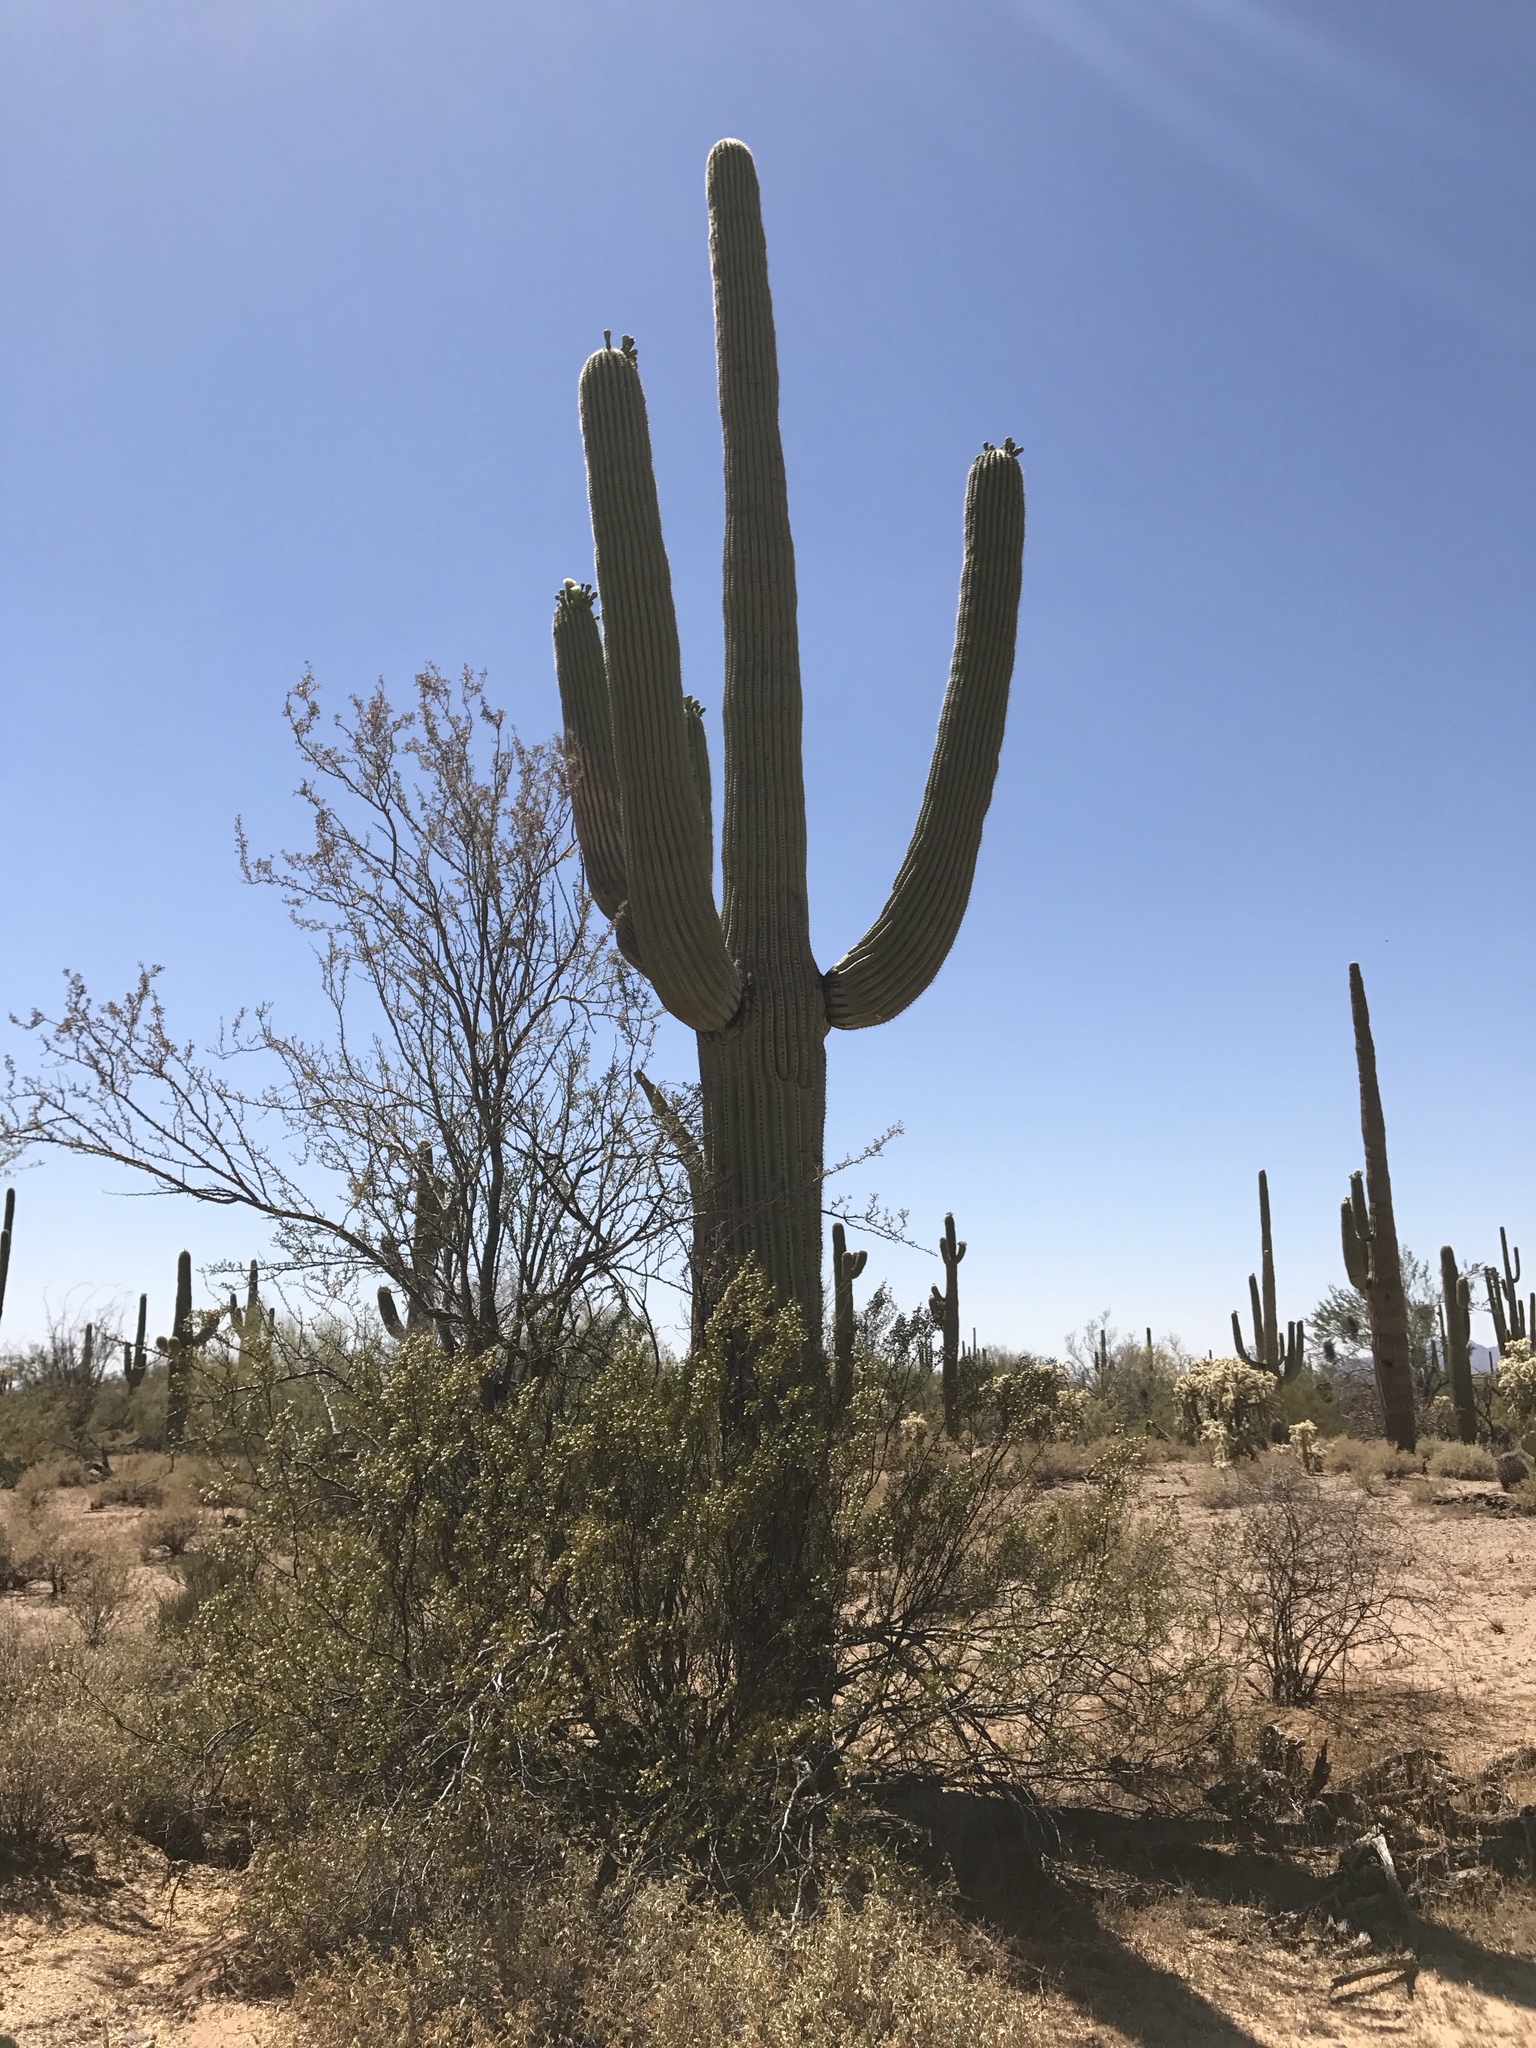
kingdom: Plantae
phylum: Tracheophyta
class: Magnoliopsida
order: Caryophyllales
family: Cactaceae
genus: Carnegiea
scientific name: Carnegiea gigantea
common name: Saguaro
